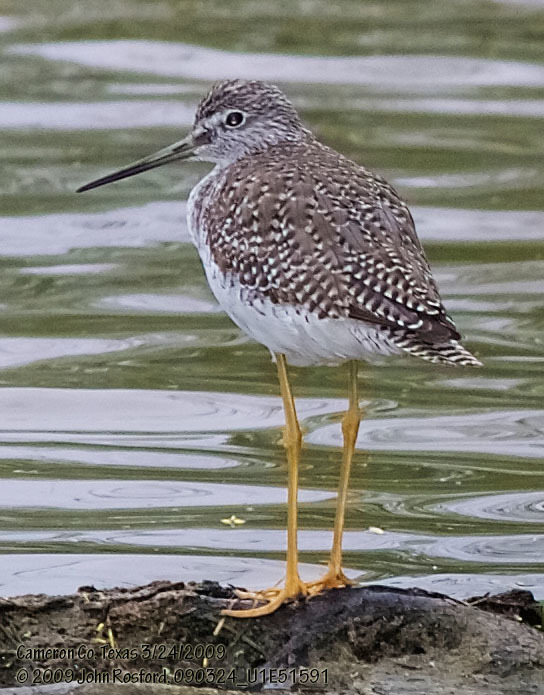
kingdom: Animalia
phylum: Chordata
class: Aves
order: Charadriiformes
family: Scolopacidae
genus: Tringa
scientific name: Tringa melanoleuca
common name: Greater yellowlegs
